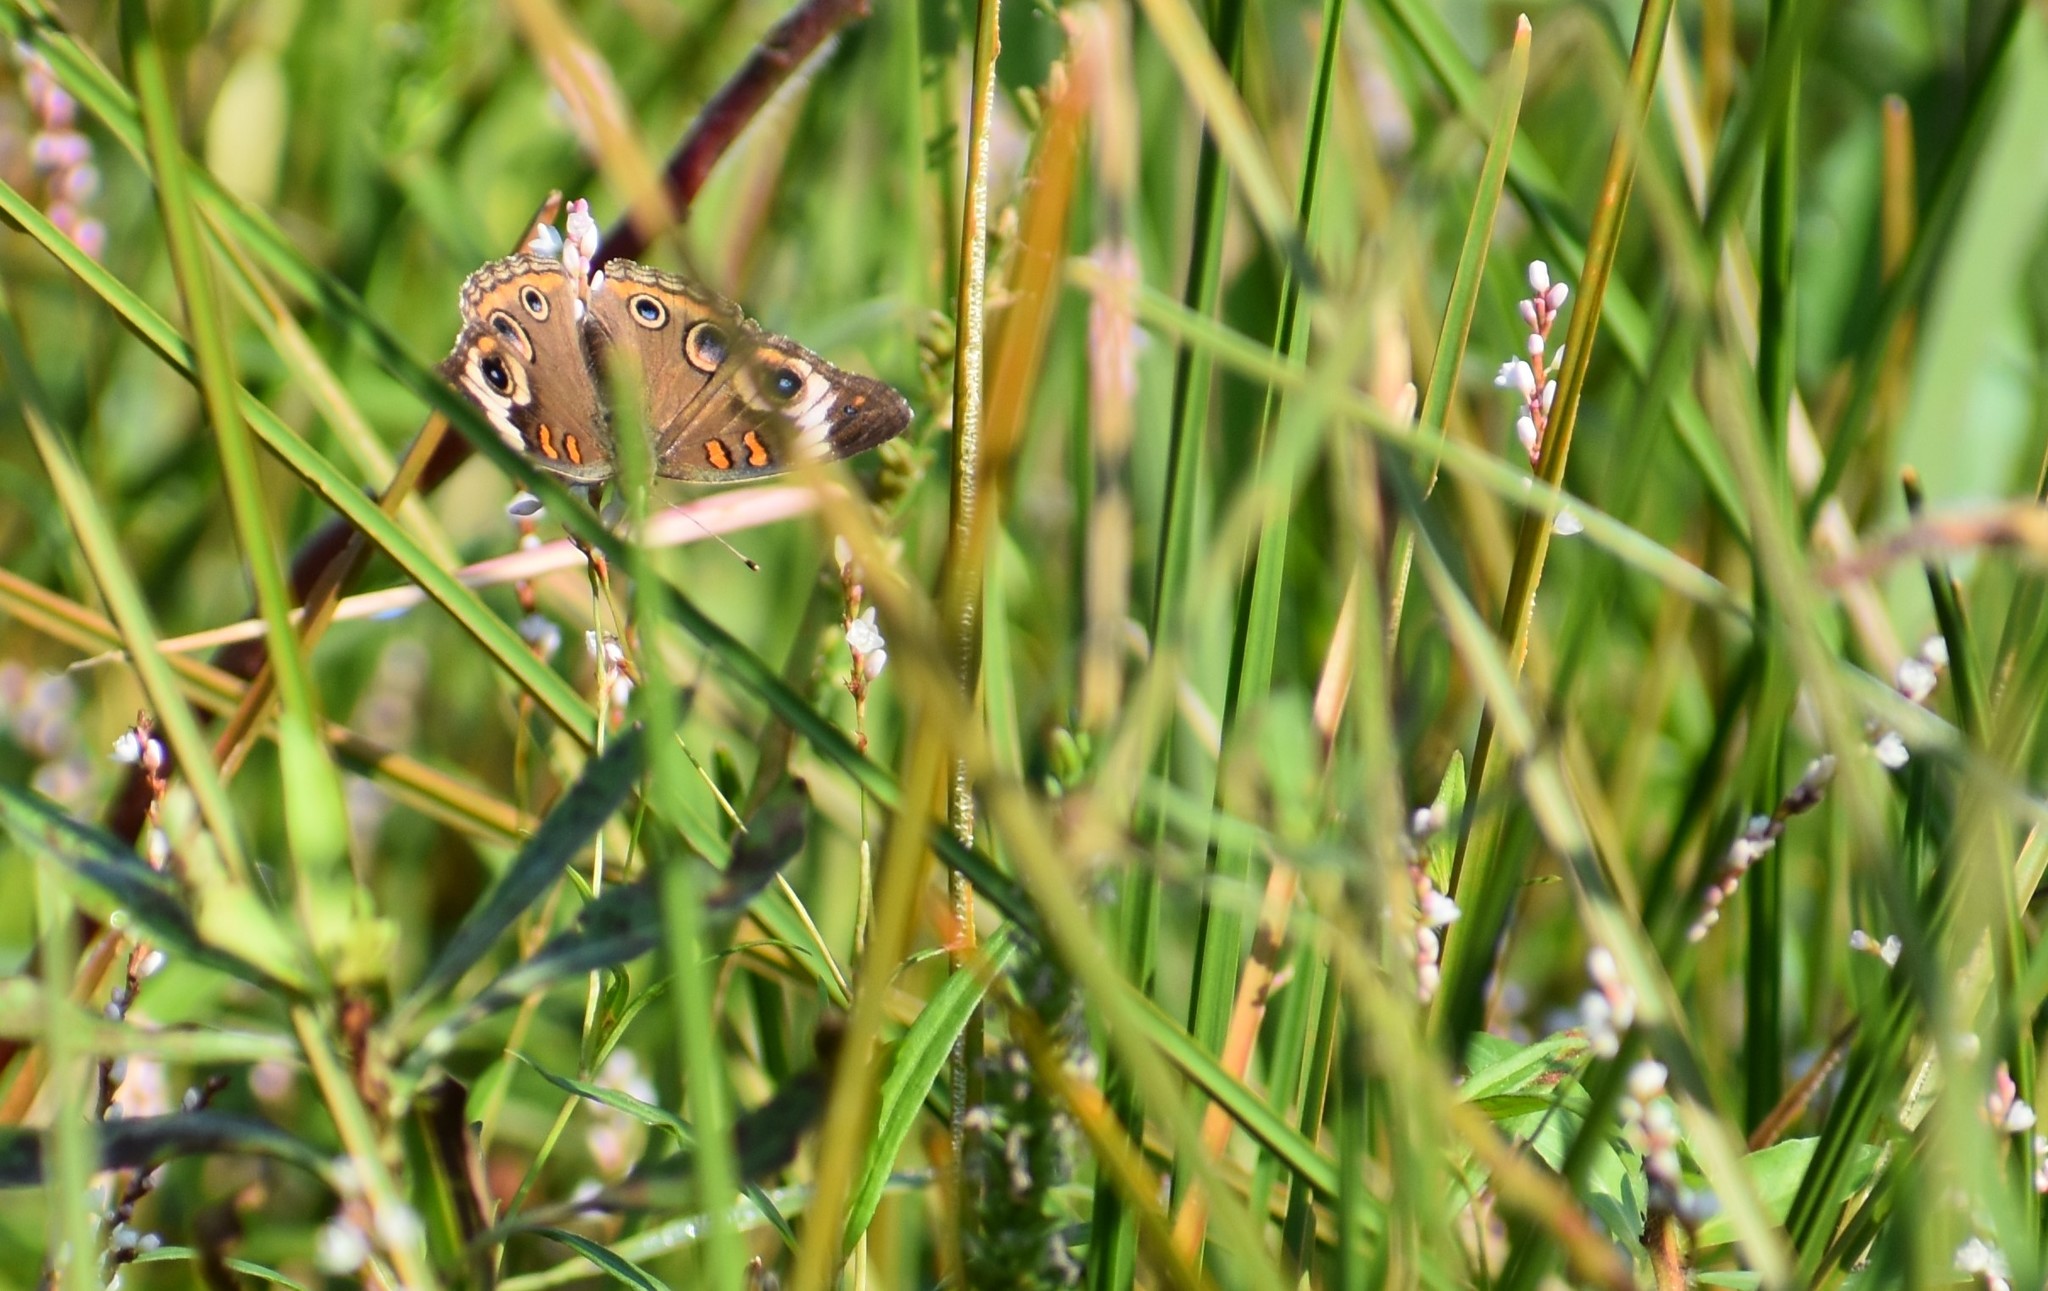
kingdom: Animalia
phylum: Arthropoda
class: Insecta
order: Lepidoptera
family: Nymphalidae
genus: Junonia
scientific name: Junonia coenia
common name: Common buckeye
